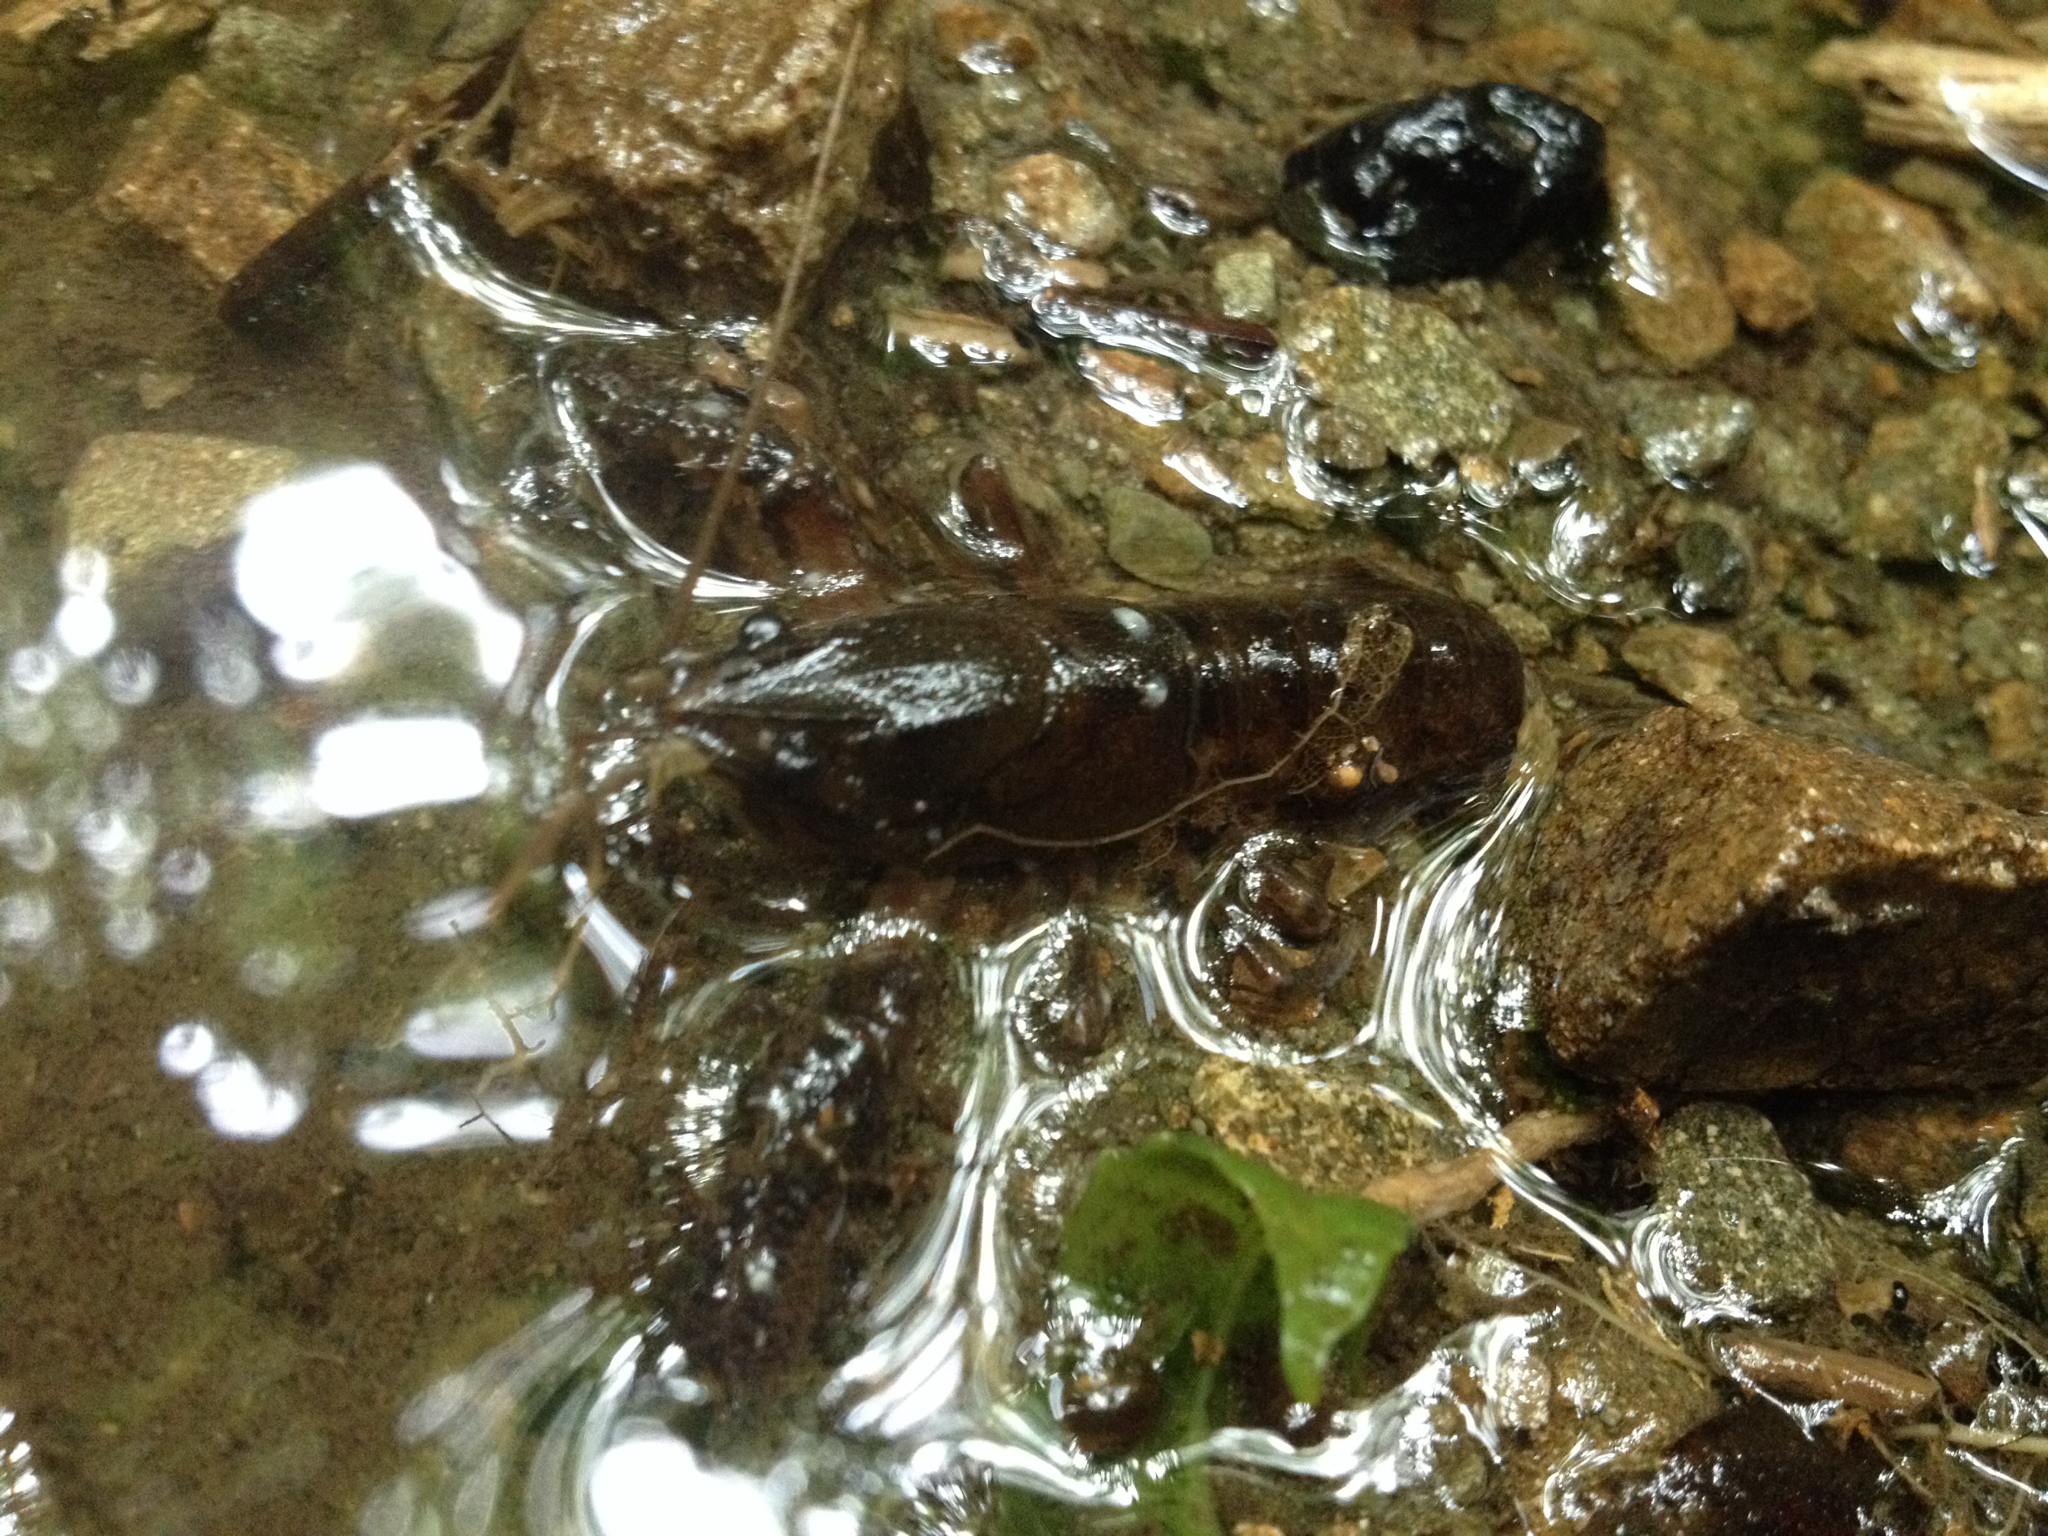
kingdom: Animalia
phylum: Arthropoda
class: Malacostraca
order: Decapoda
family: Parastacidae
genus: Paranephrops
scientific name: Paranephrops planifrons
